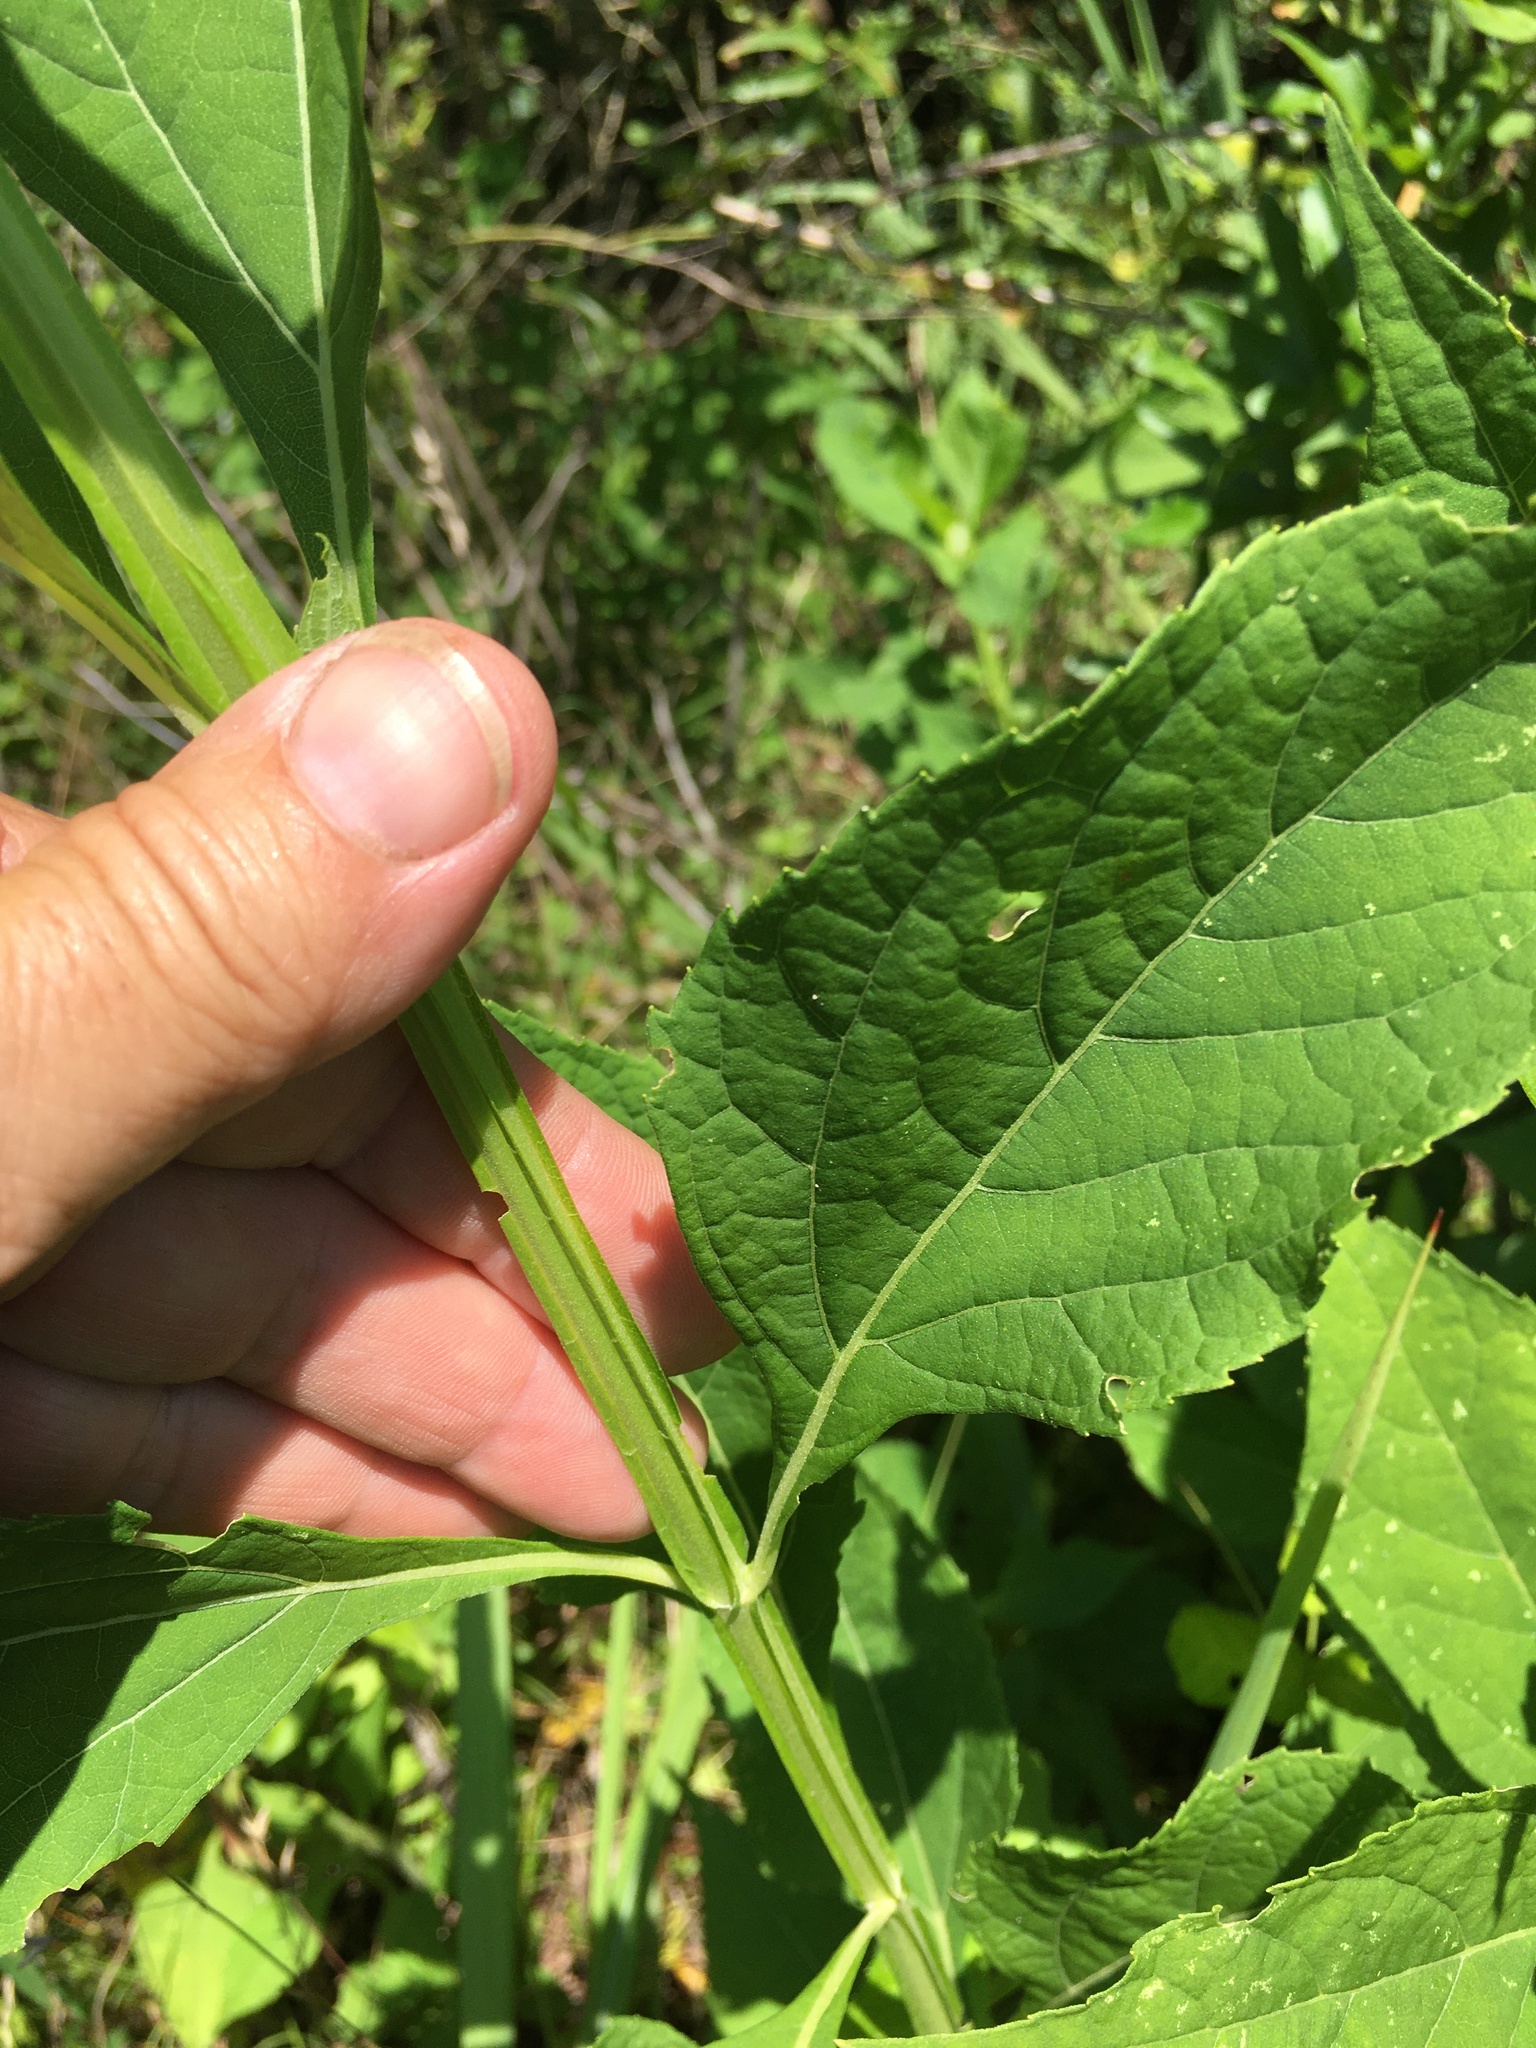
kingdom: Plantae
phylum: Tracheophyta
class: Magnoliopsida
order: Asterales
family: Asteraceae
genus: Verbesina
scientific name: Verbesina occidentalis
